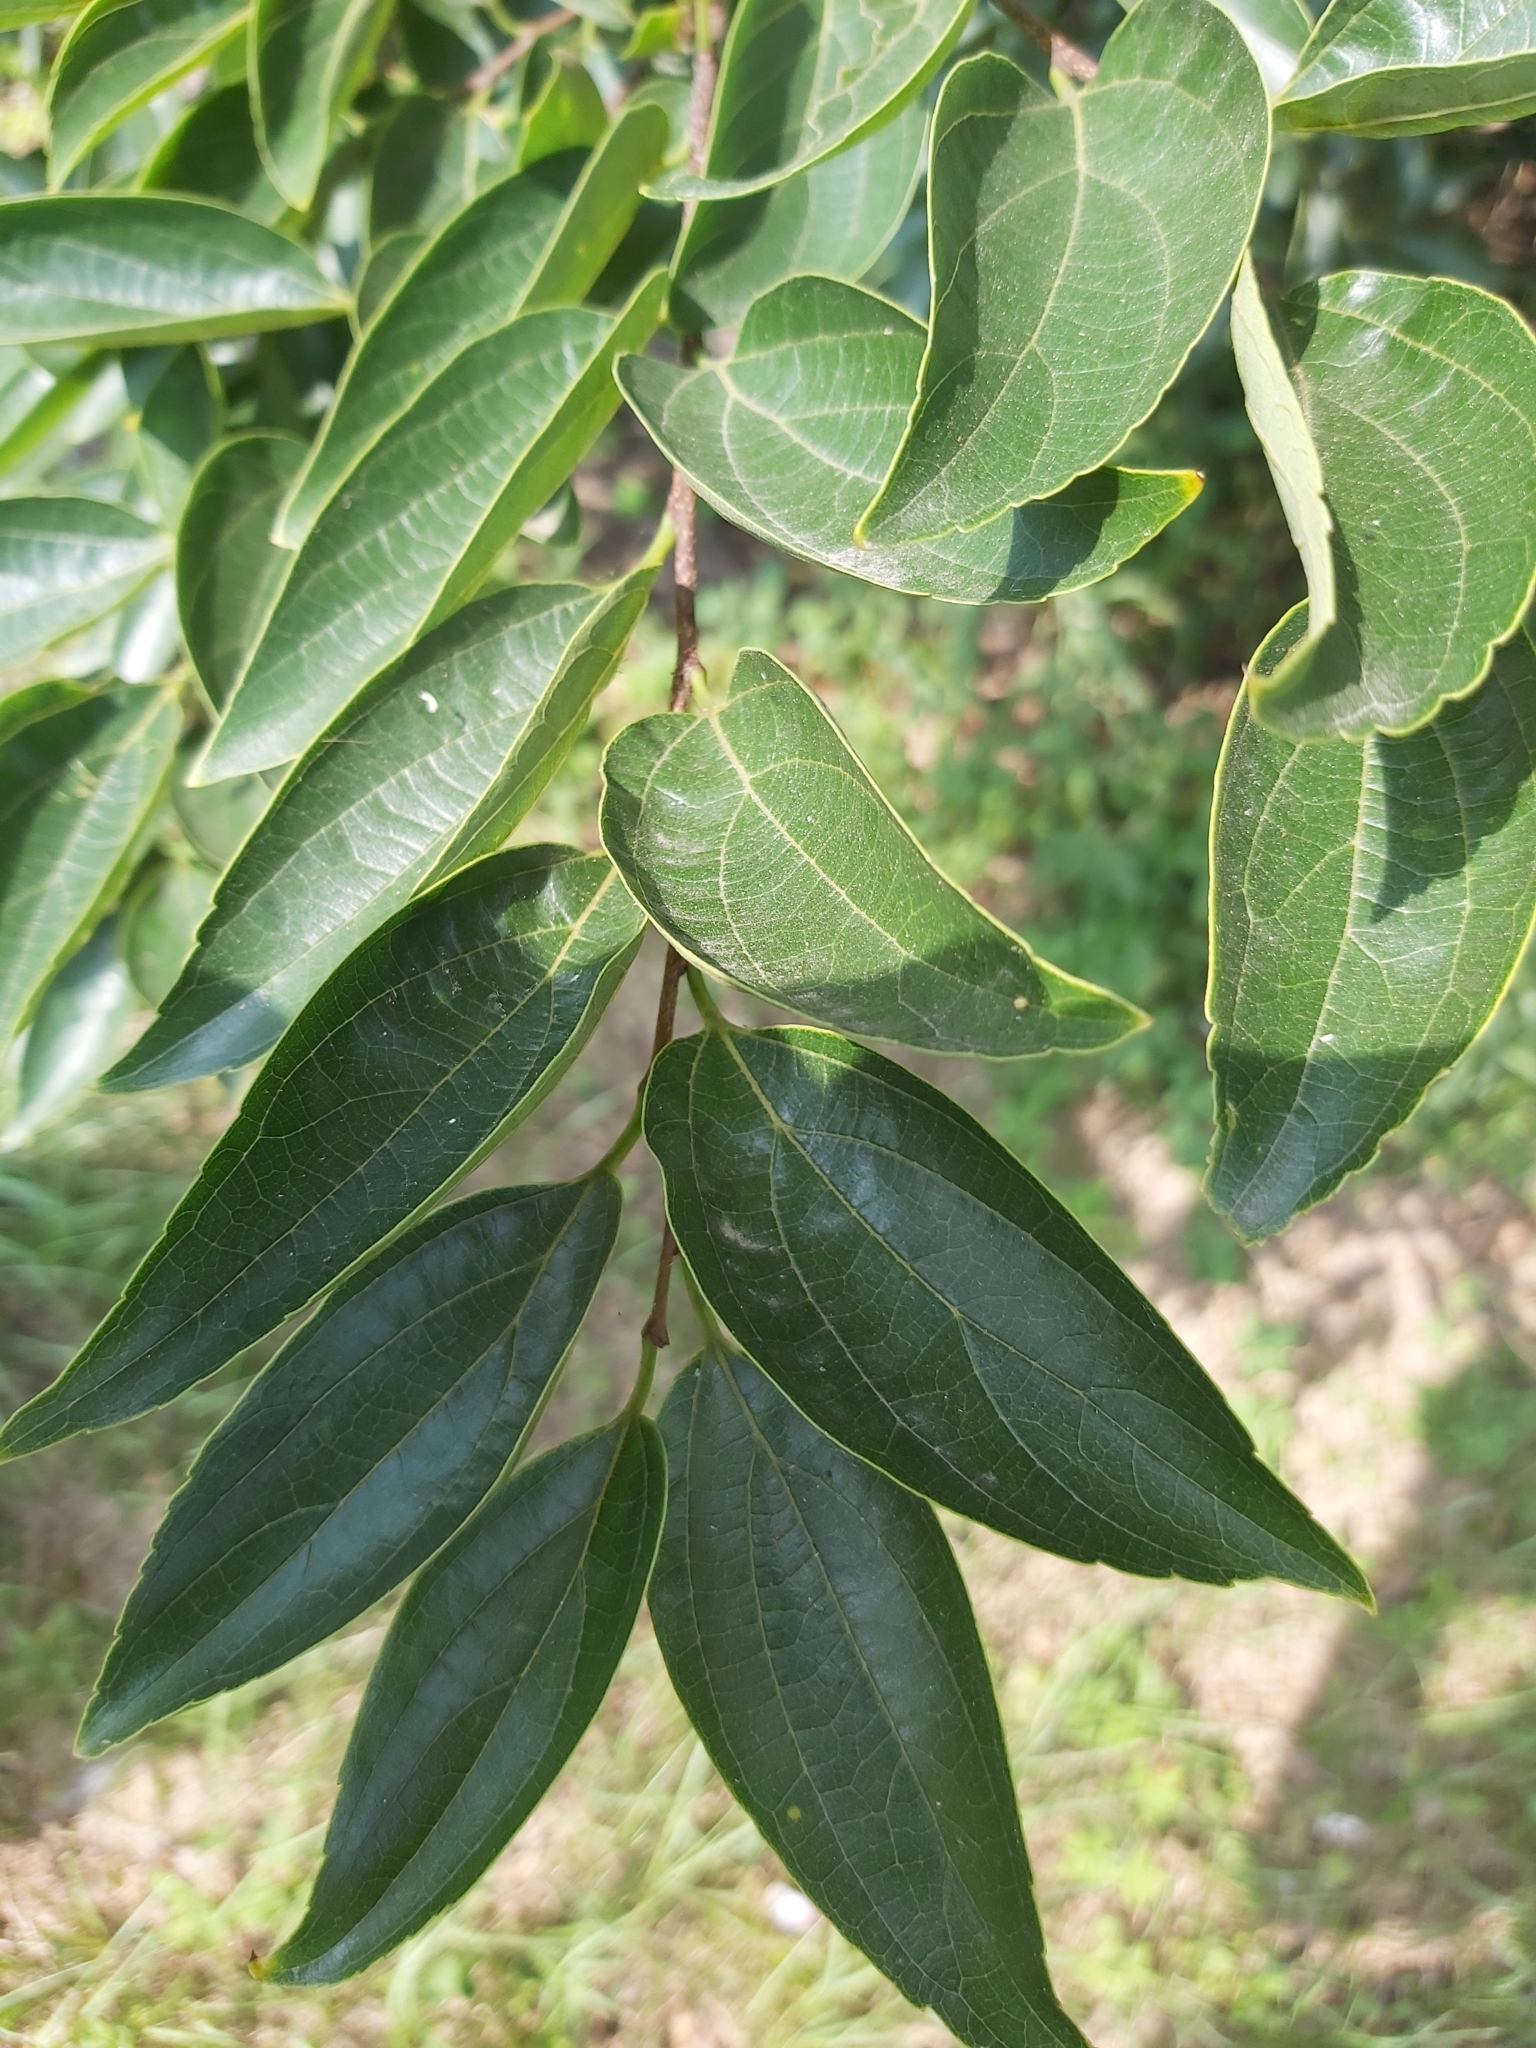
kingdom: Plantae
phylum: Tracheophyta
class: Magnoliopsida
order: Rosales
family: Cannabaceae
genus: Celtis
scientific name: Celtis sinensis
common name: Chinese hackberry
